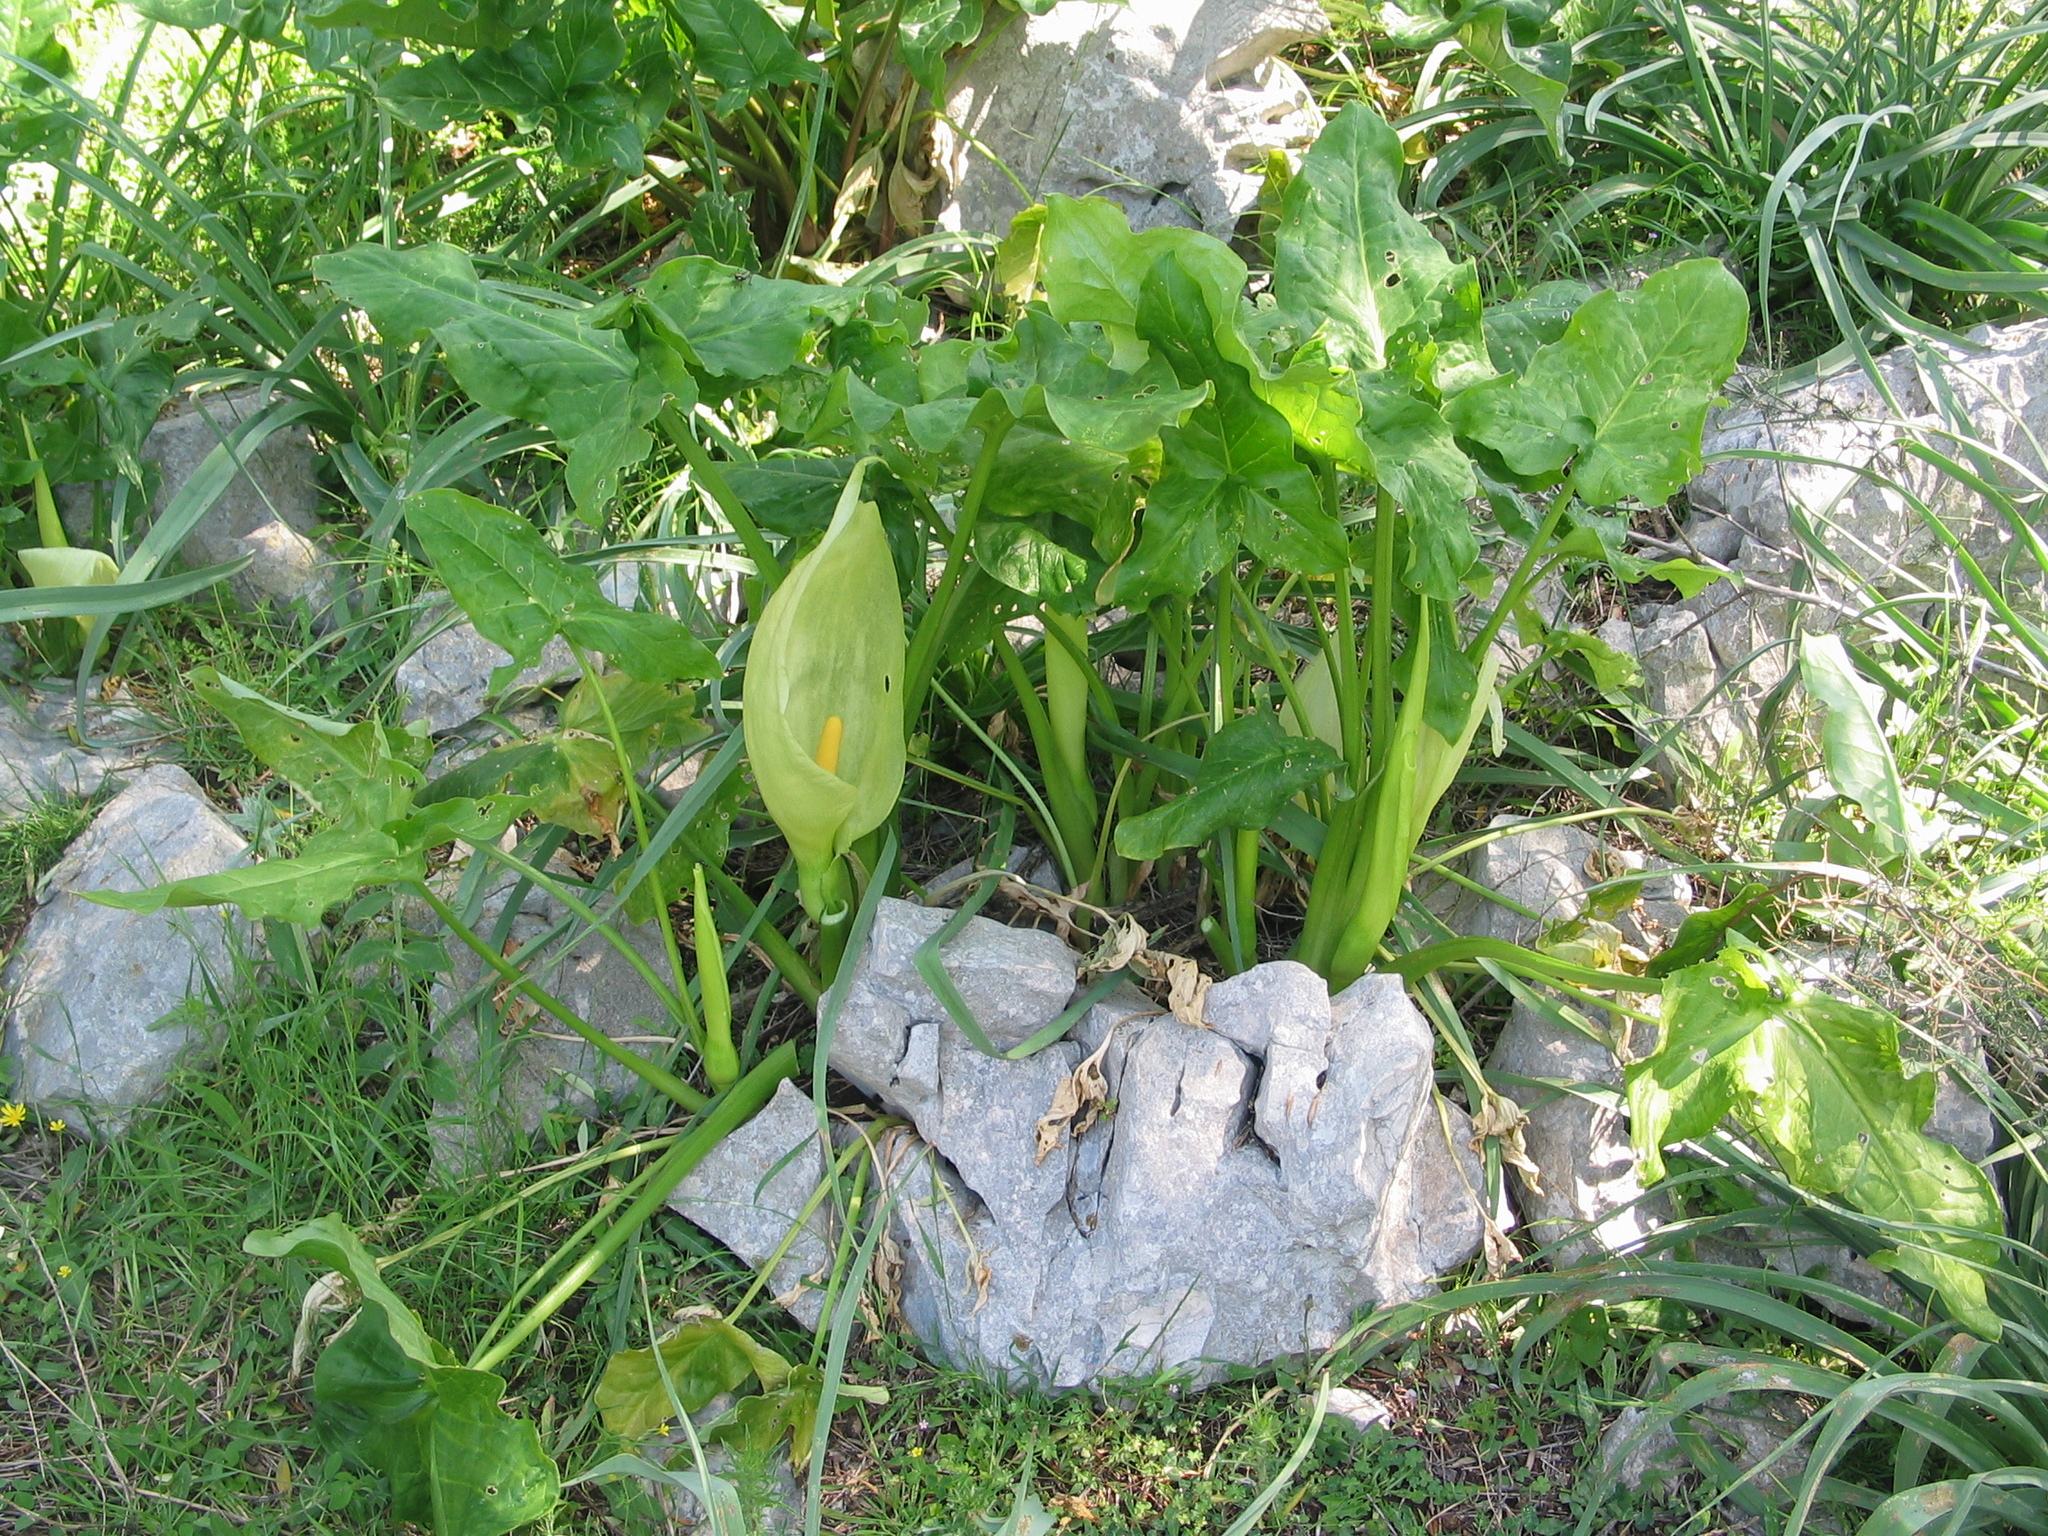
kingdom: Plantae
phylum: Tracheophyta
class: Liliopsida
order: Alismatales
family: Araceae
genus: Arum
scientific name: Arum italicum
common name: Italian lords-and-ladies
